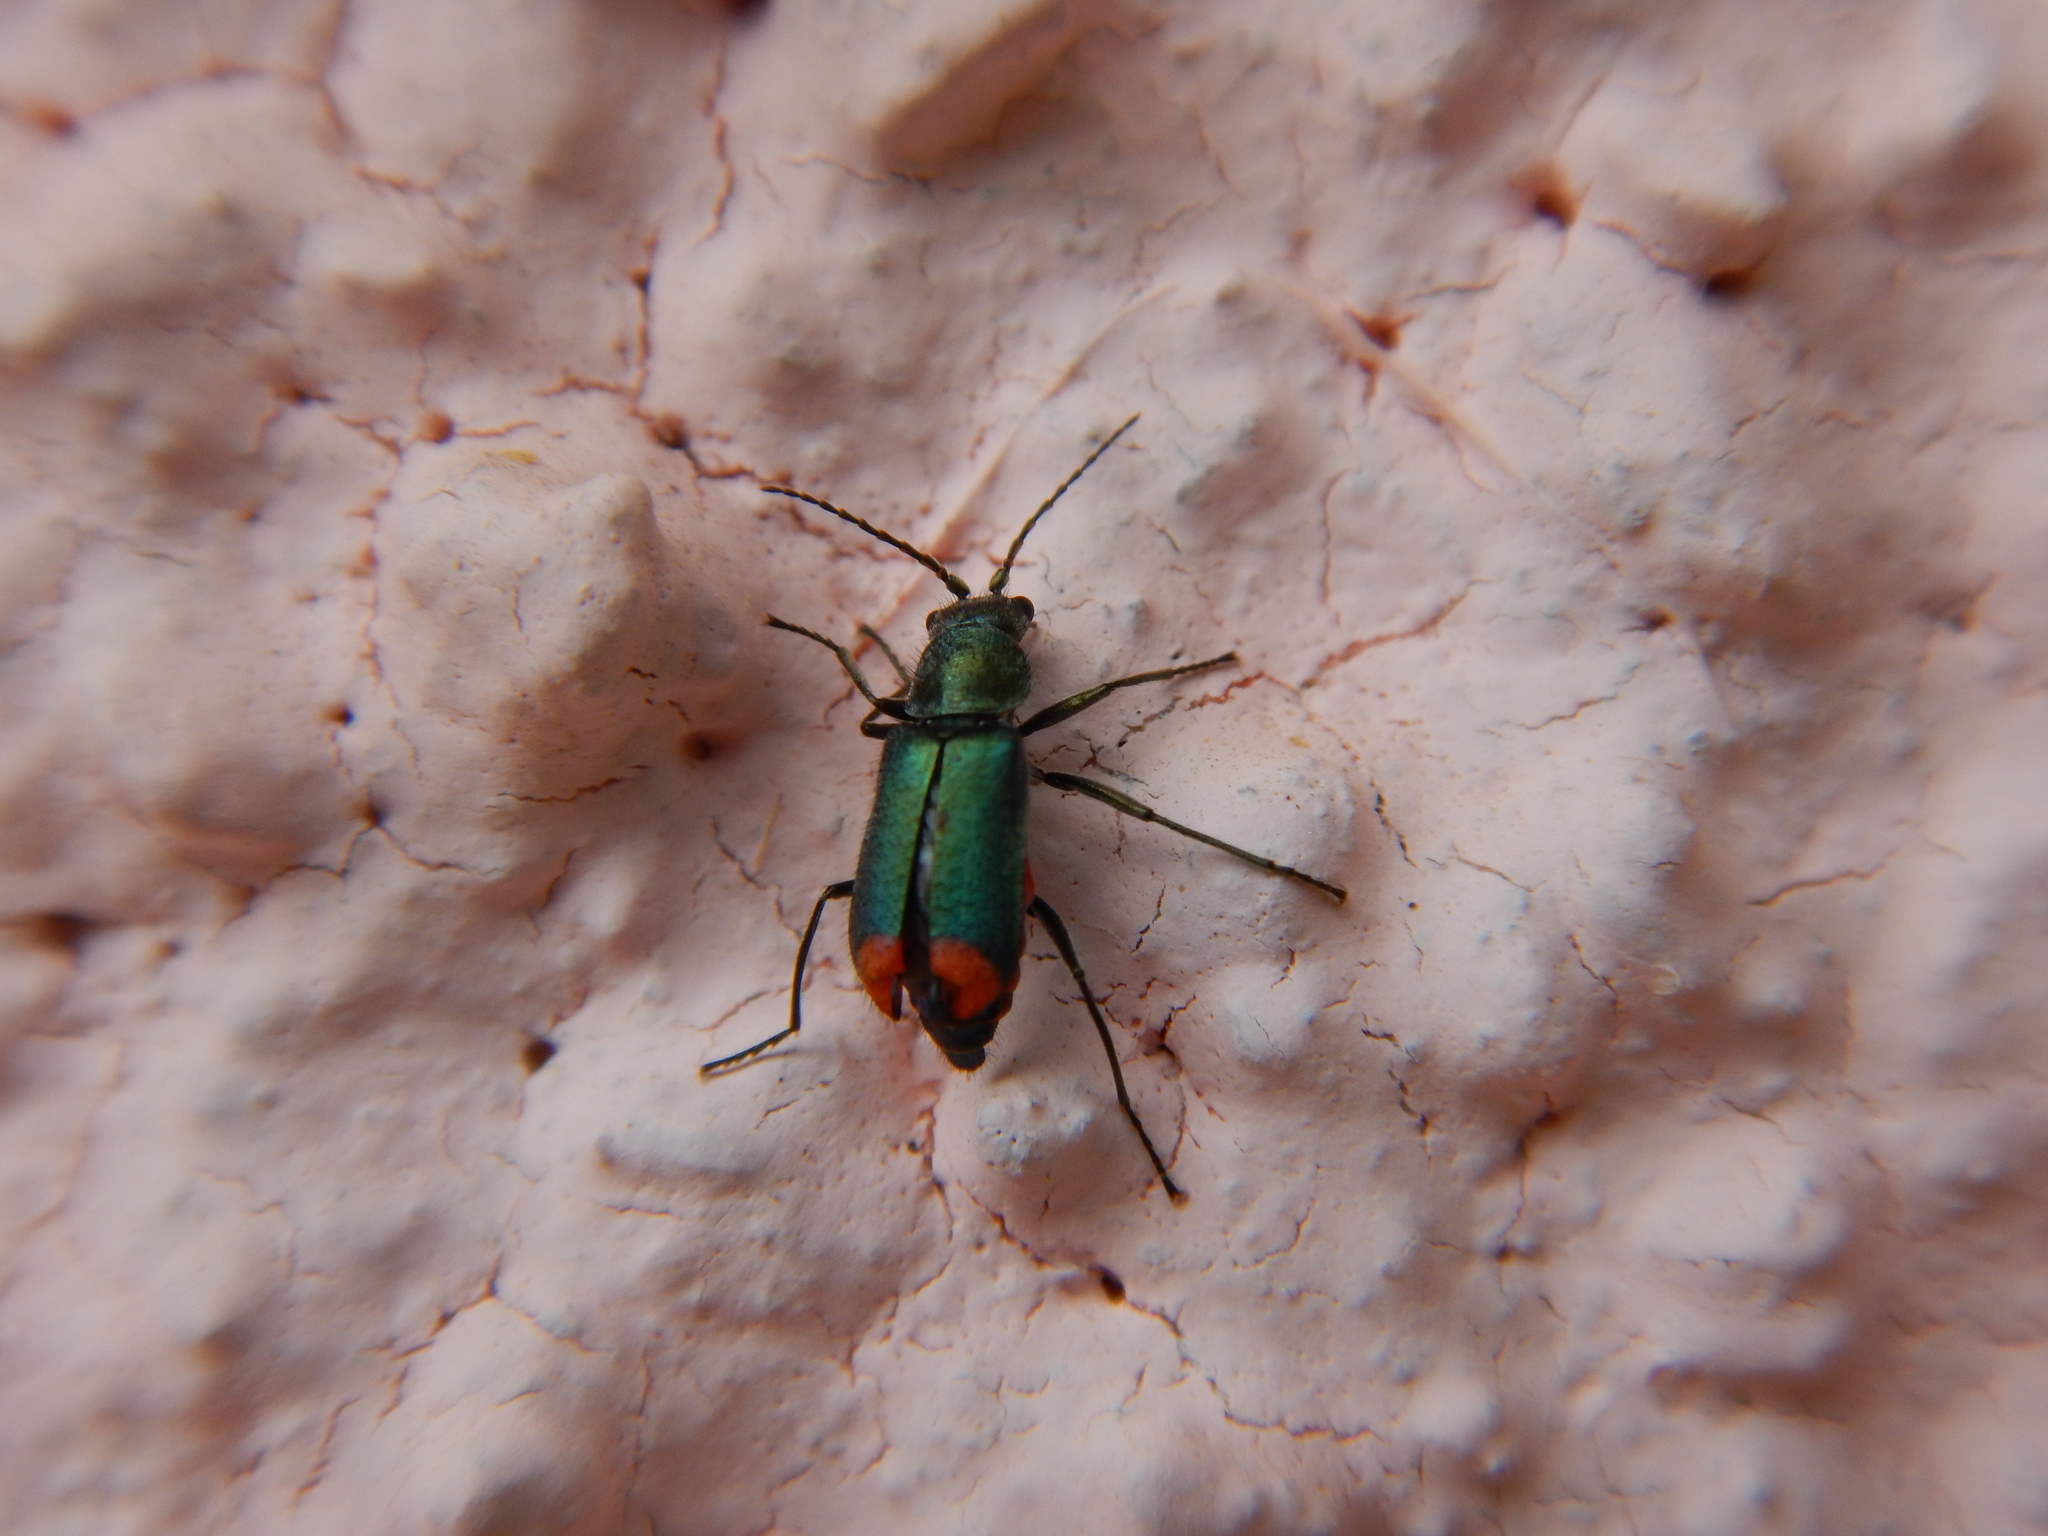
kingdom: Animalia
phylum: Arthropoda
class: Insecta
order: Coleoptera
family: Malachiidae
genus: Clanoptilus
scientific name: Clanoptilus spinipennis
